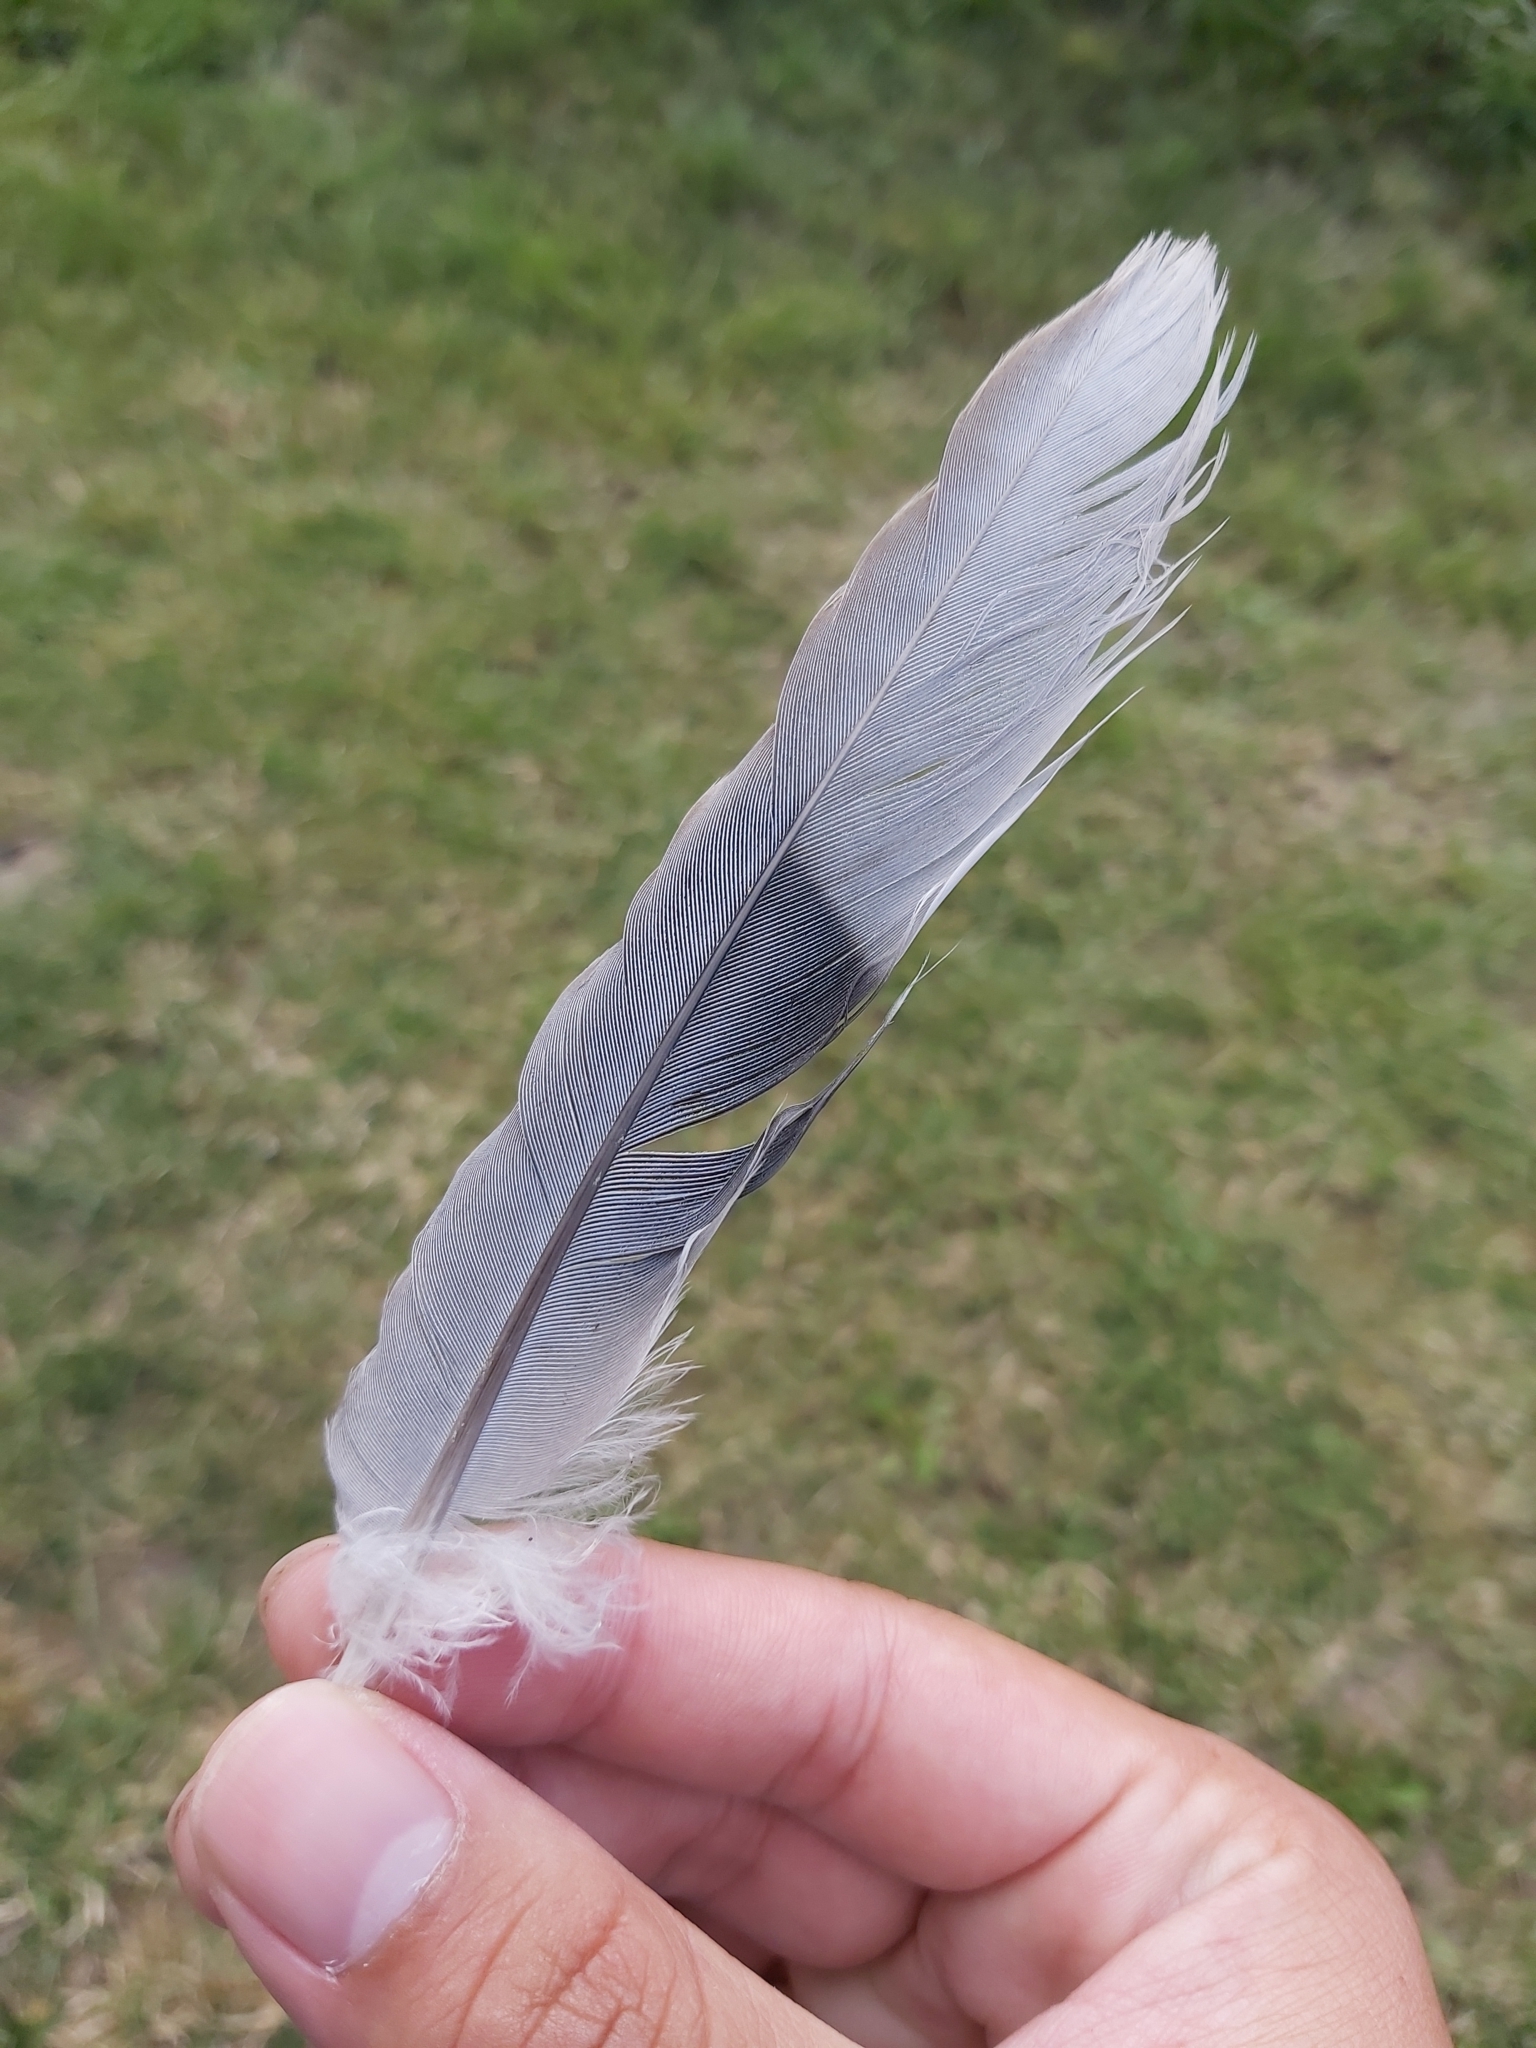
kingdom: Animalia
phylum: Chordata
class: Aves
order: Columbiformes
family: Columbidae
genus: Streptopelia
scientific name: Streptopelia decaocto
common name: Eurasian collared dove
